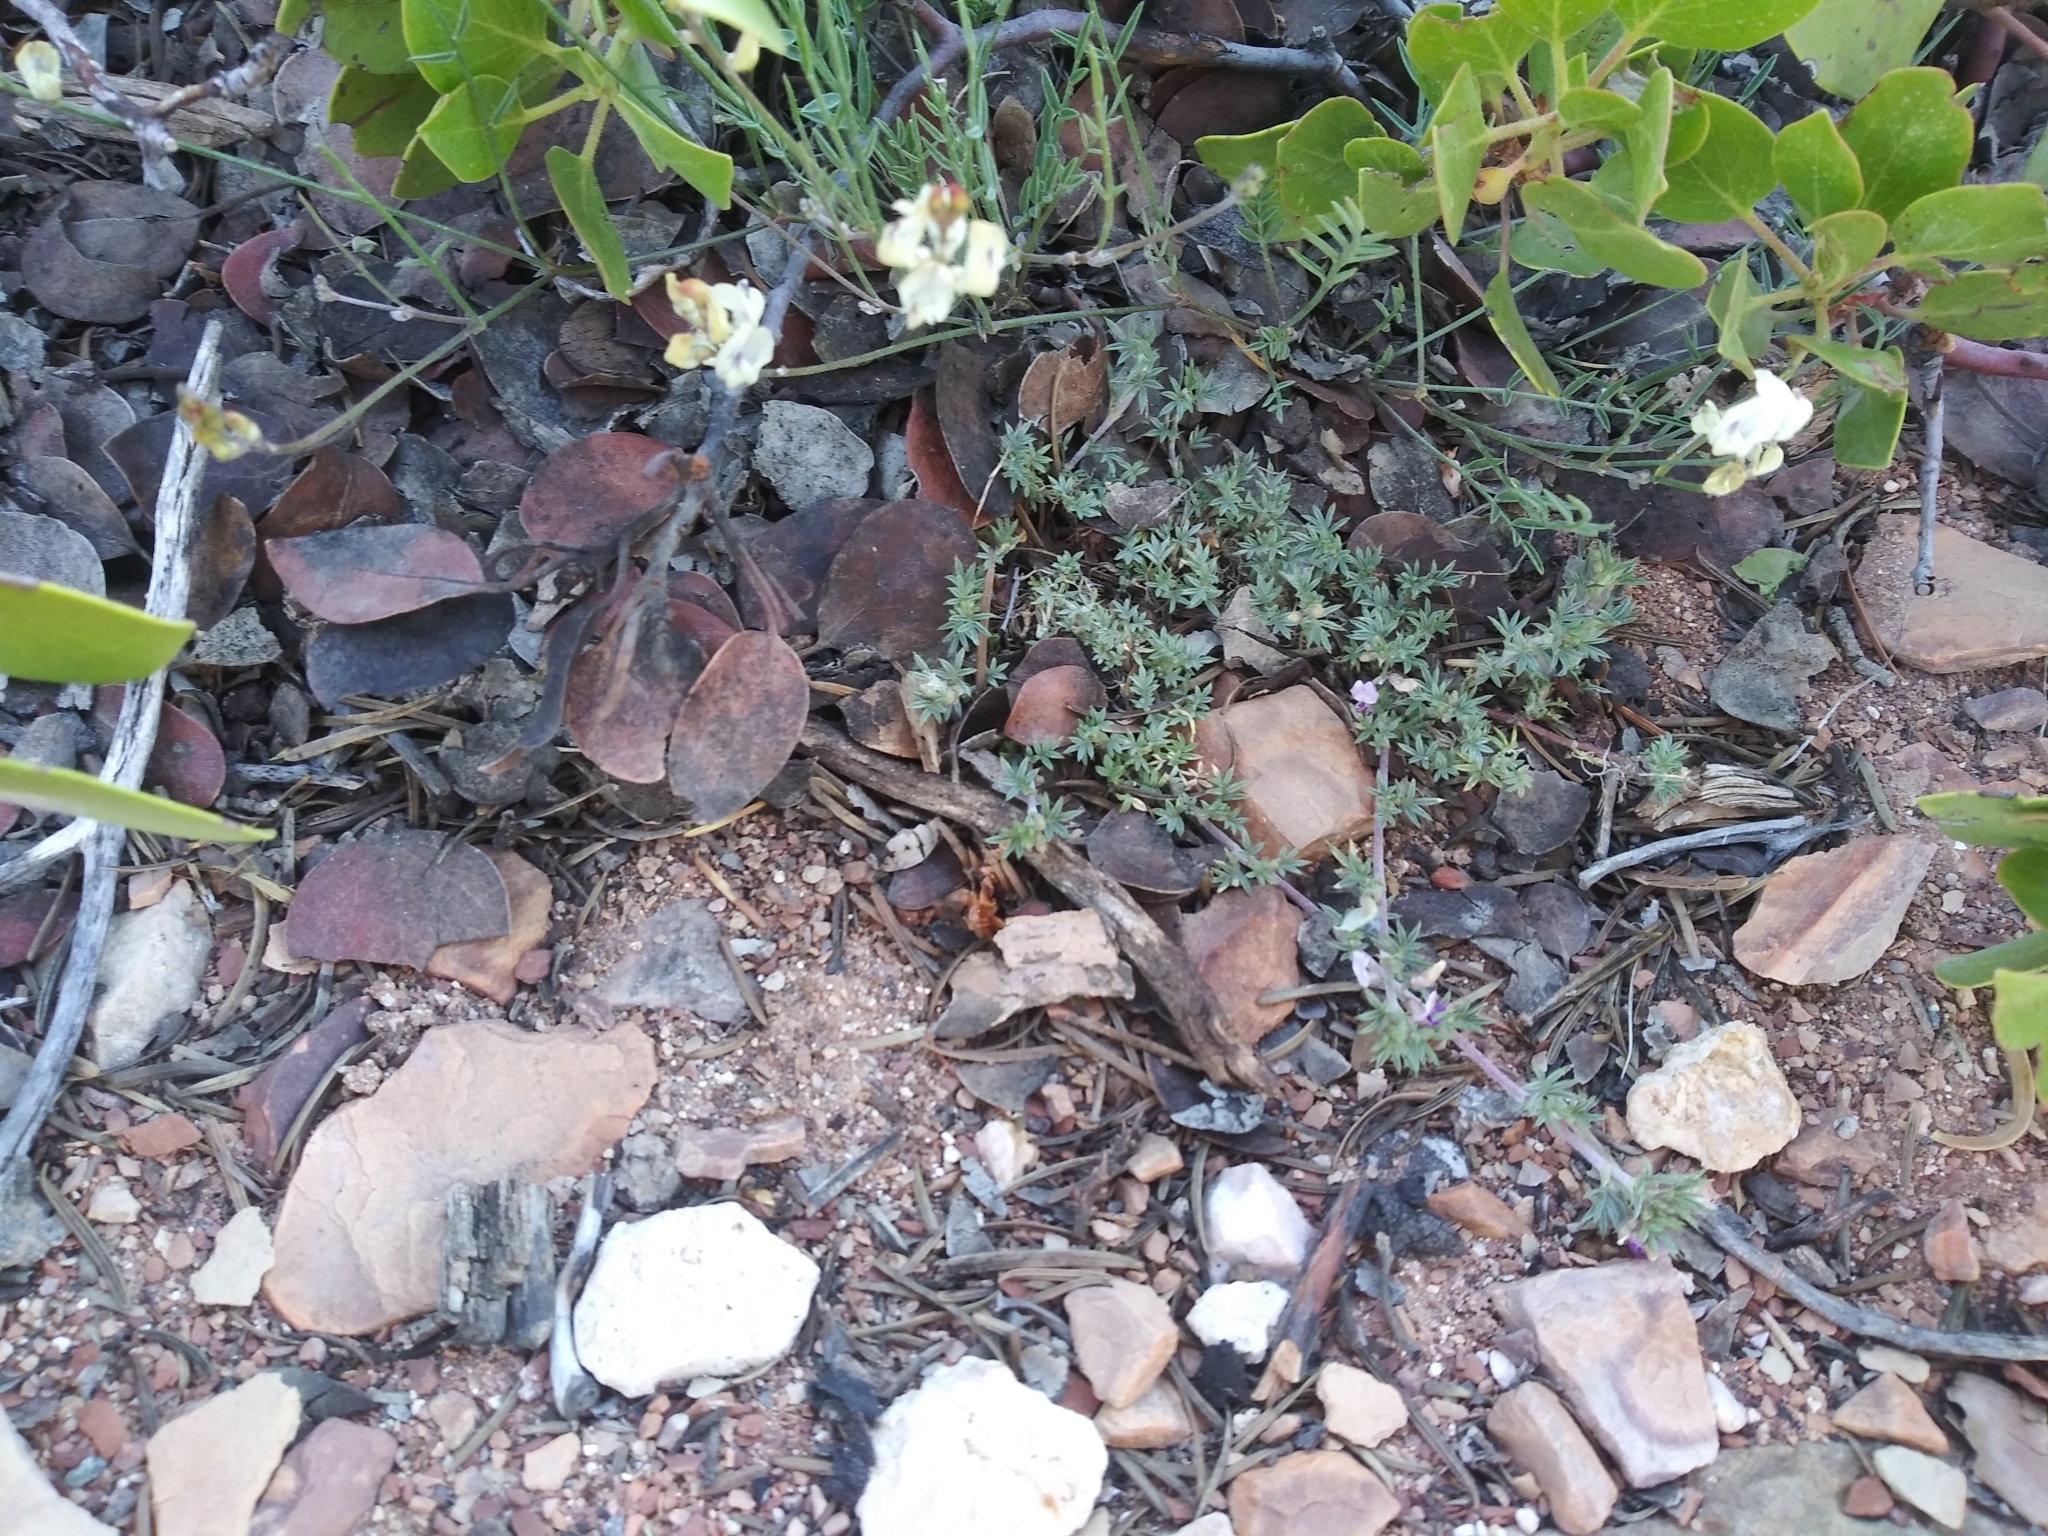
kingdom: Plantae
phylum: Tracheophyta
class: Magnoliopsida
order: Fabales
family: Fabaceae
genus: Astragalus
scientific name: Astragalus kentrophyta
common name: Prickly milk-vetch
